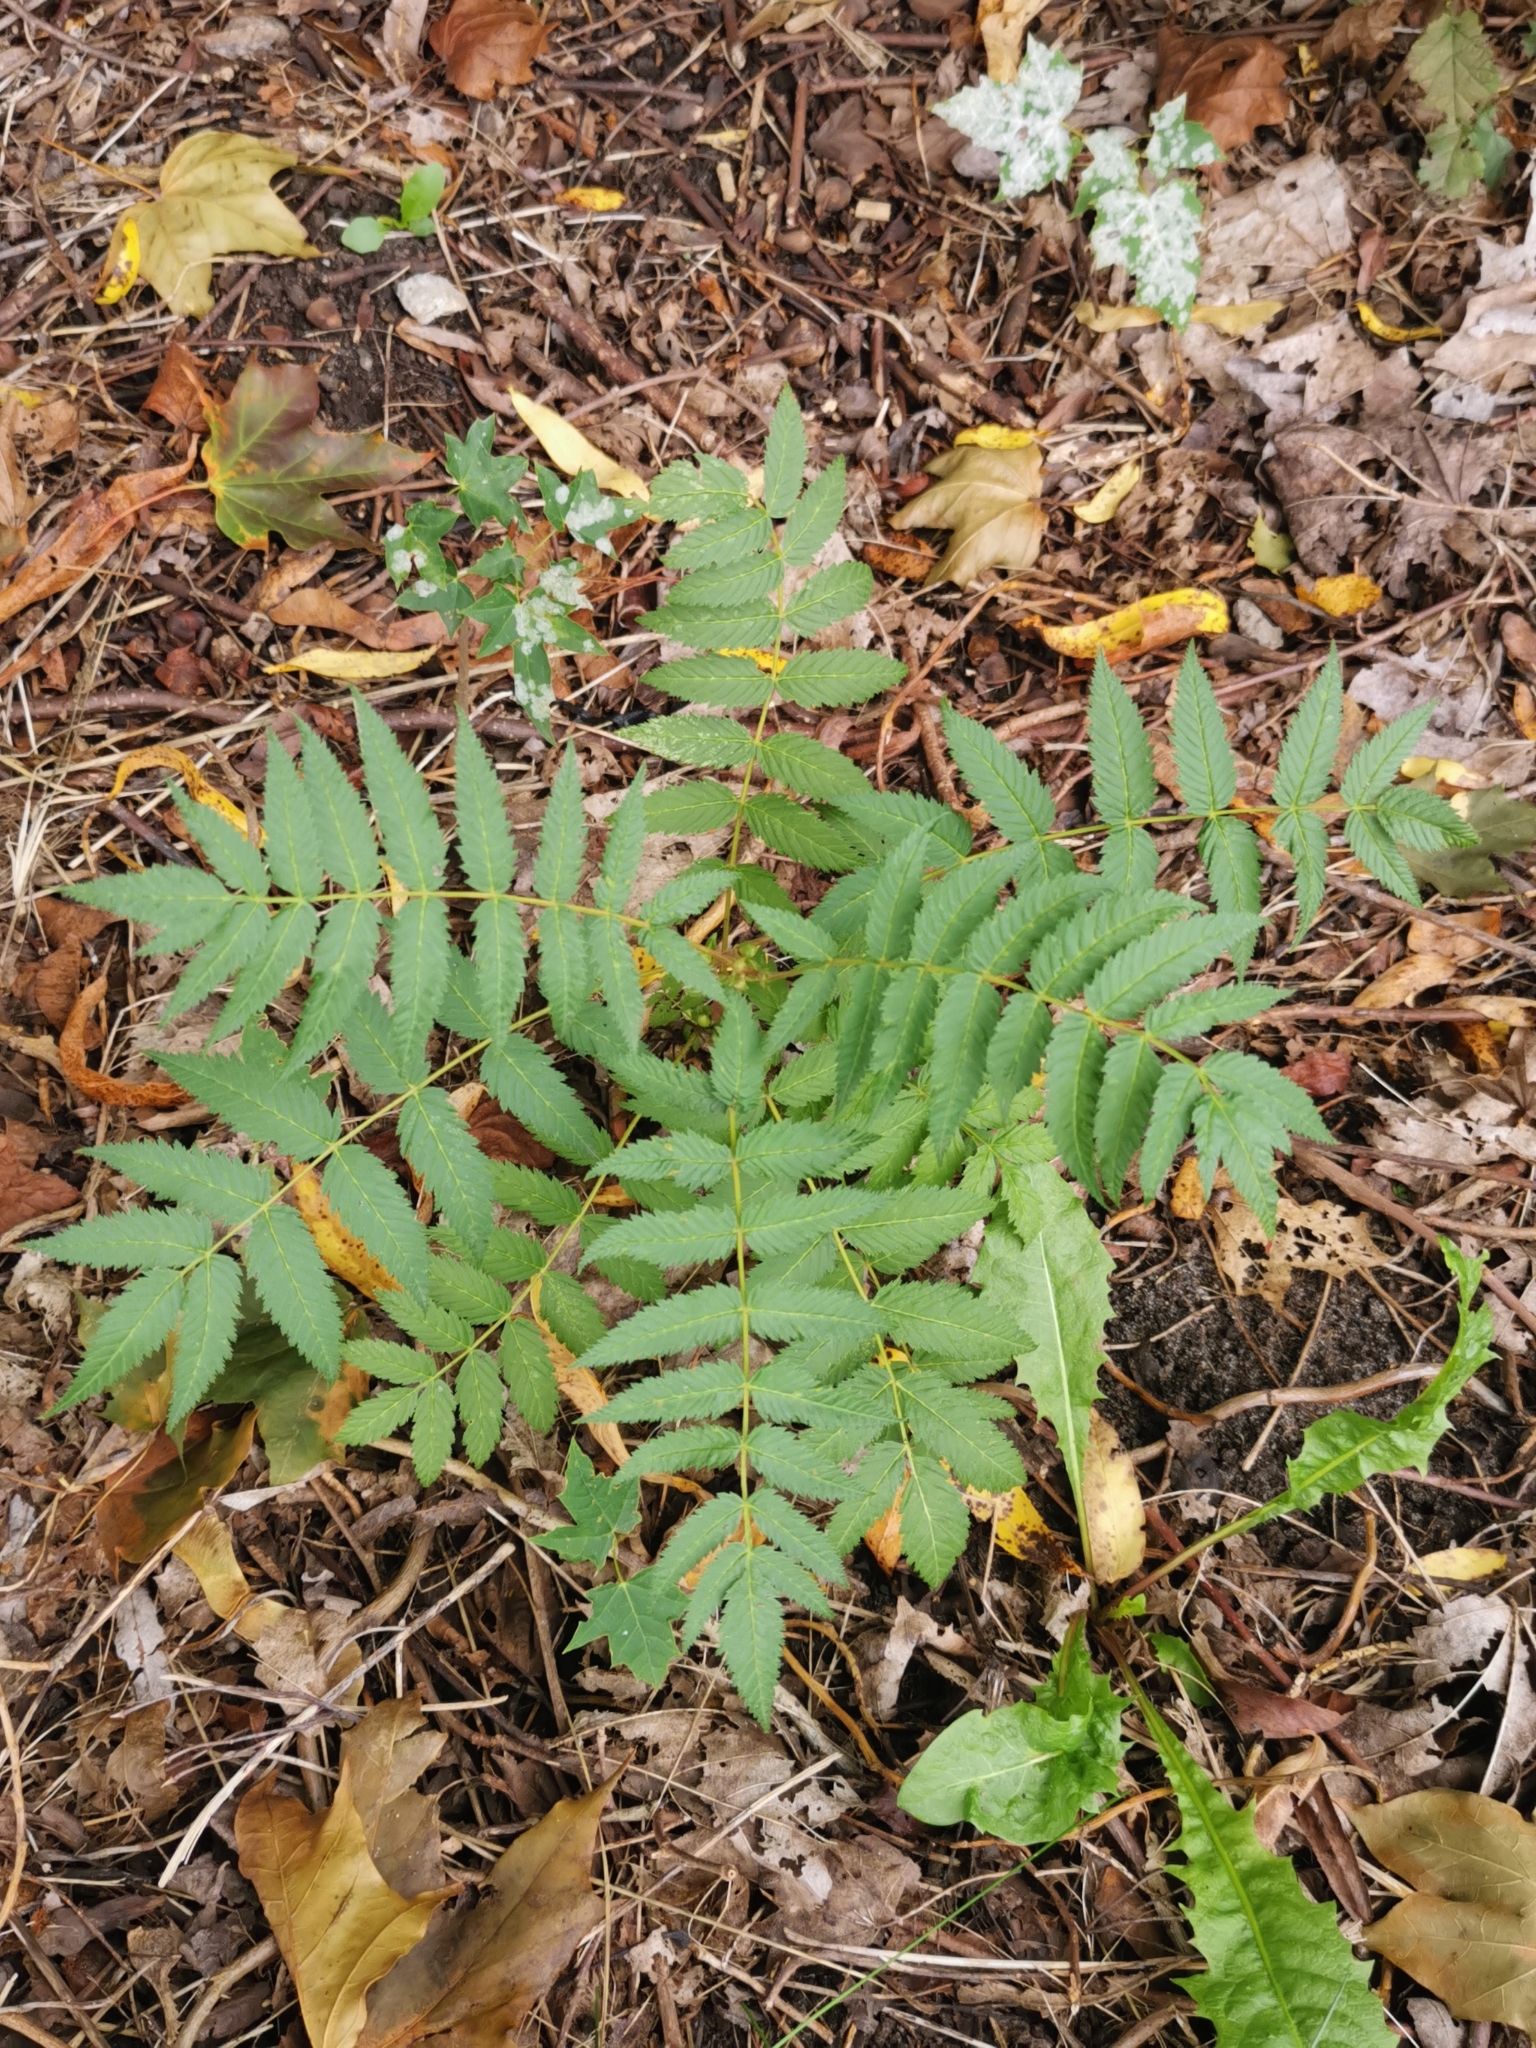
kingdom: Plantae
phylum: Tracheophyta
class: Magnoliopsida
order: Rosales
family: Rosaceae
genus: Sorbaria
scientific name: Sorbaria sorbifolia
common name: False spiraea
